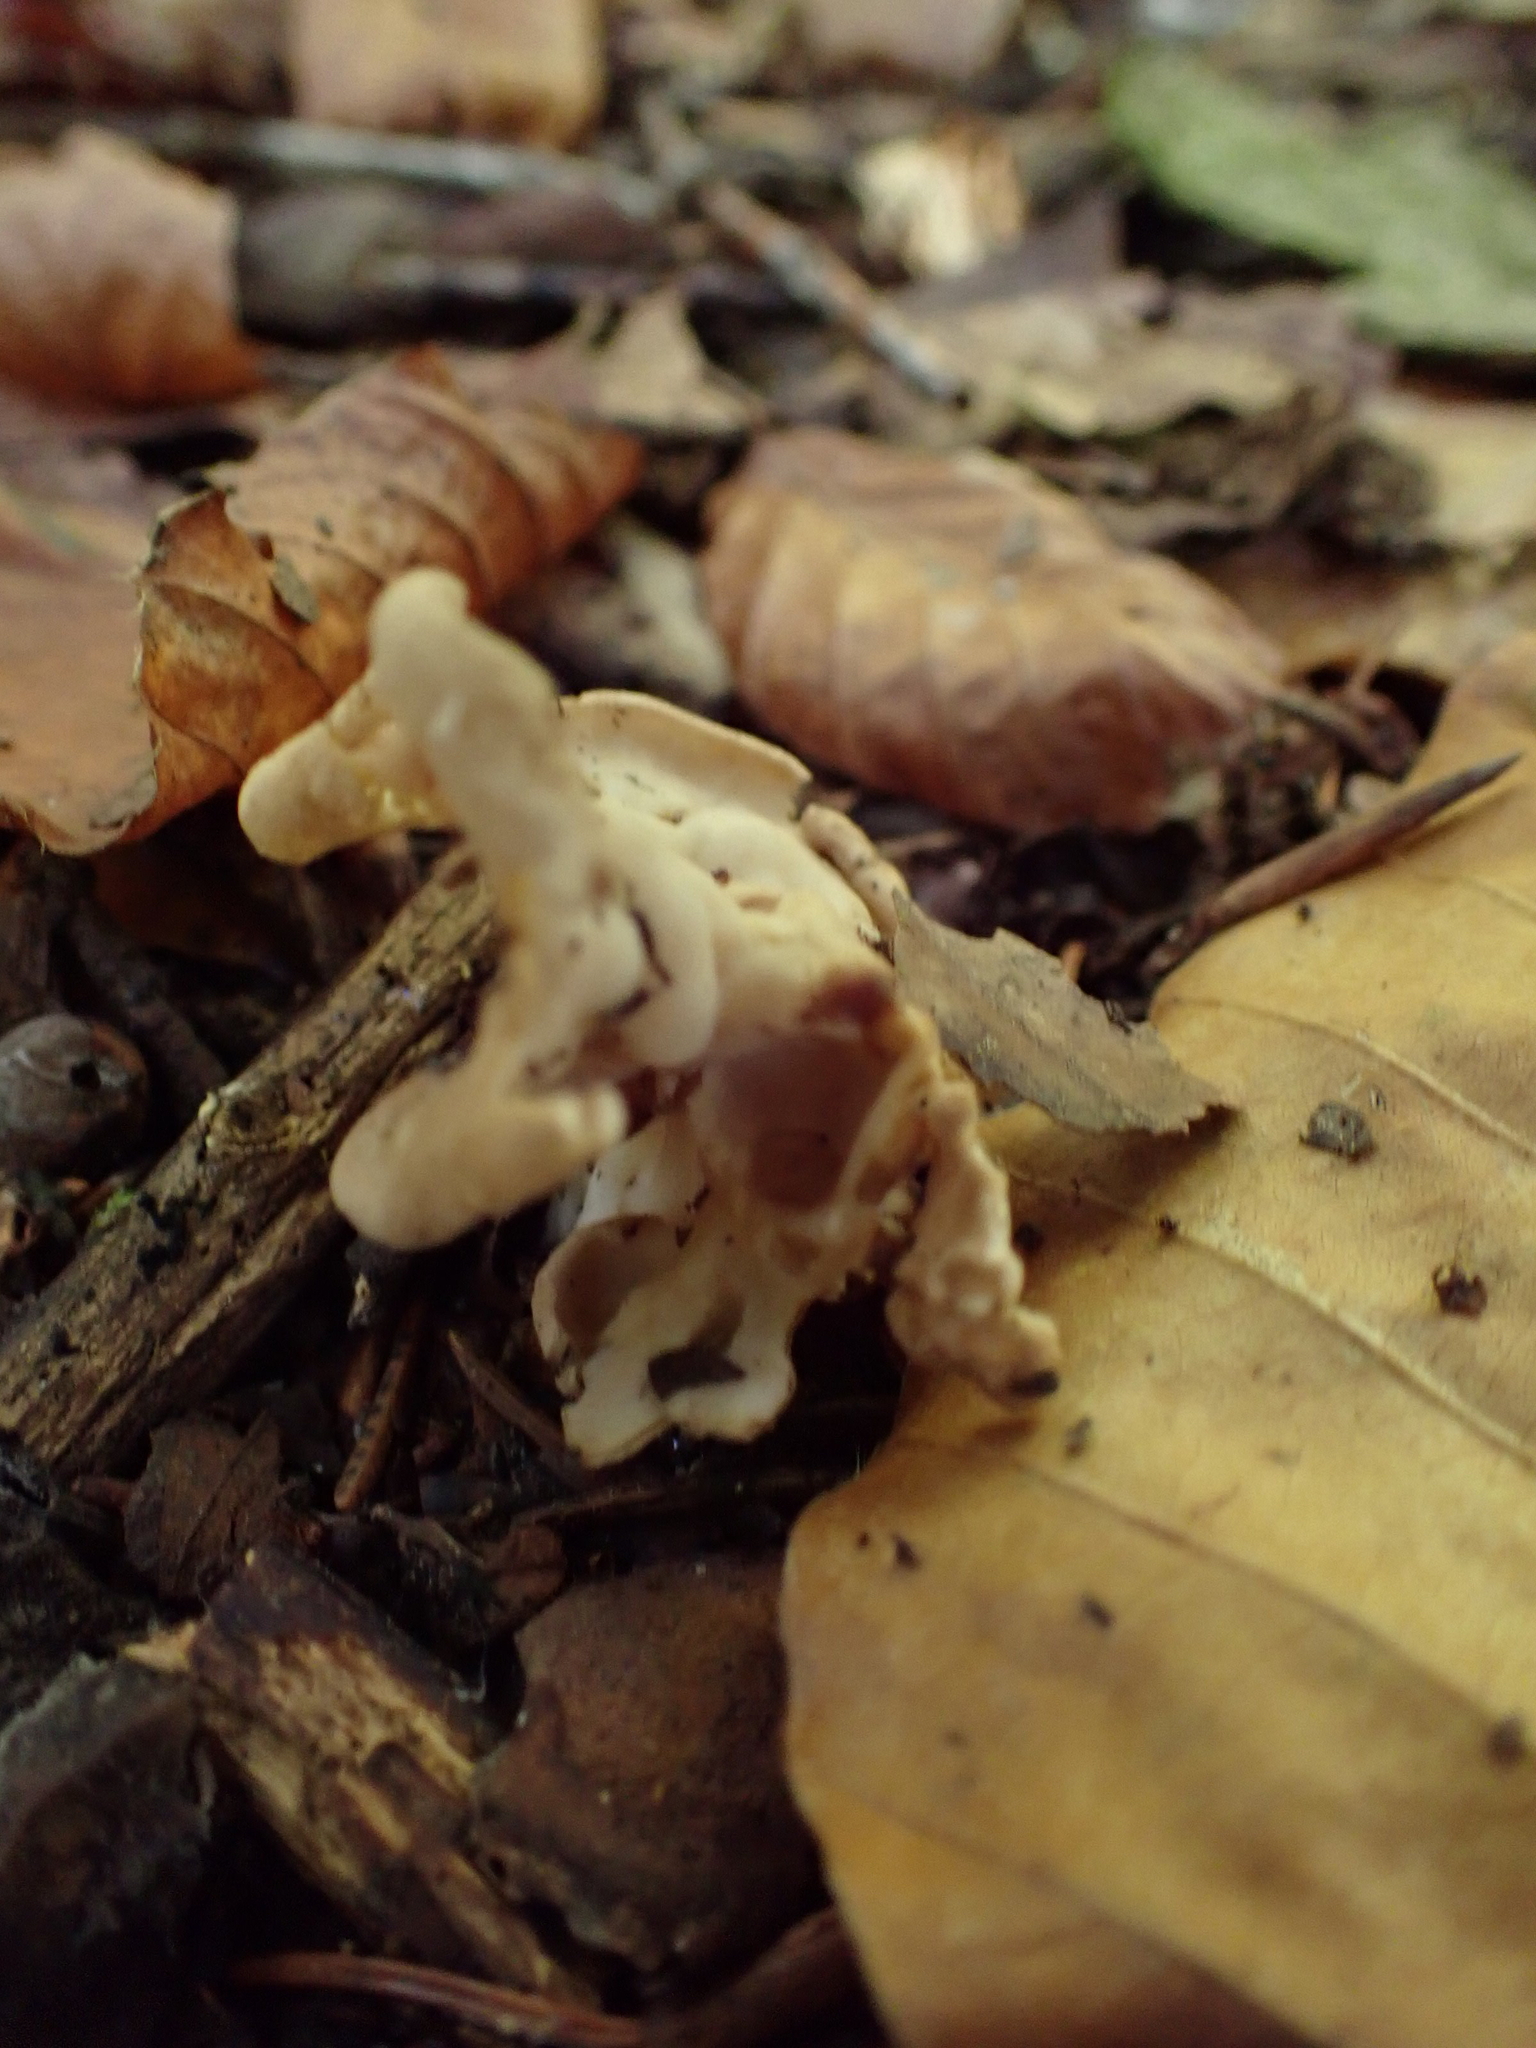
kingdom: Fungi
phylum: Ascomycota
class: Pezizomycetes
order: Pezizales
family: Helvellaceae
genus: Helvella
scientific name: Helvella crispa
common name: White saddle
